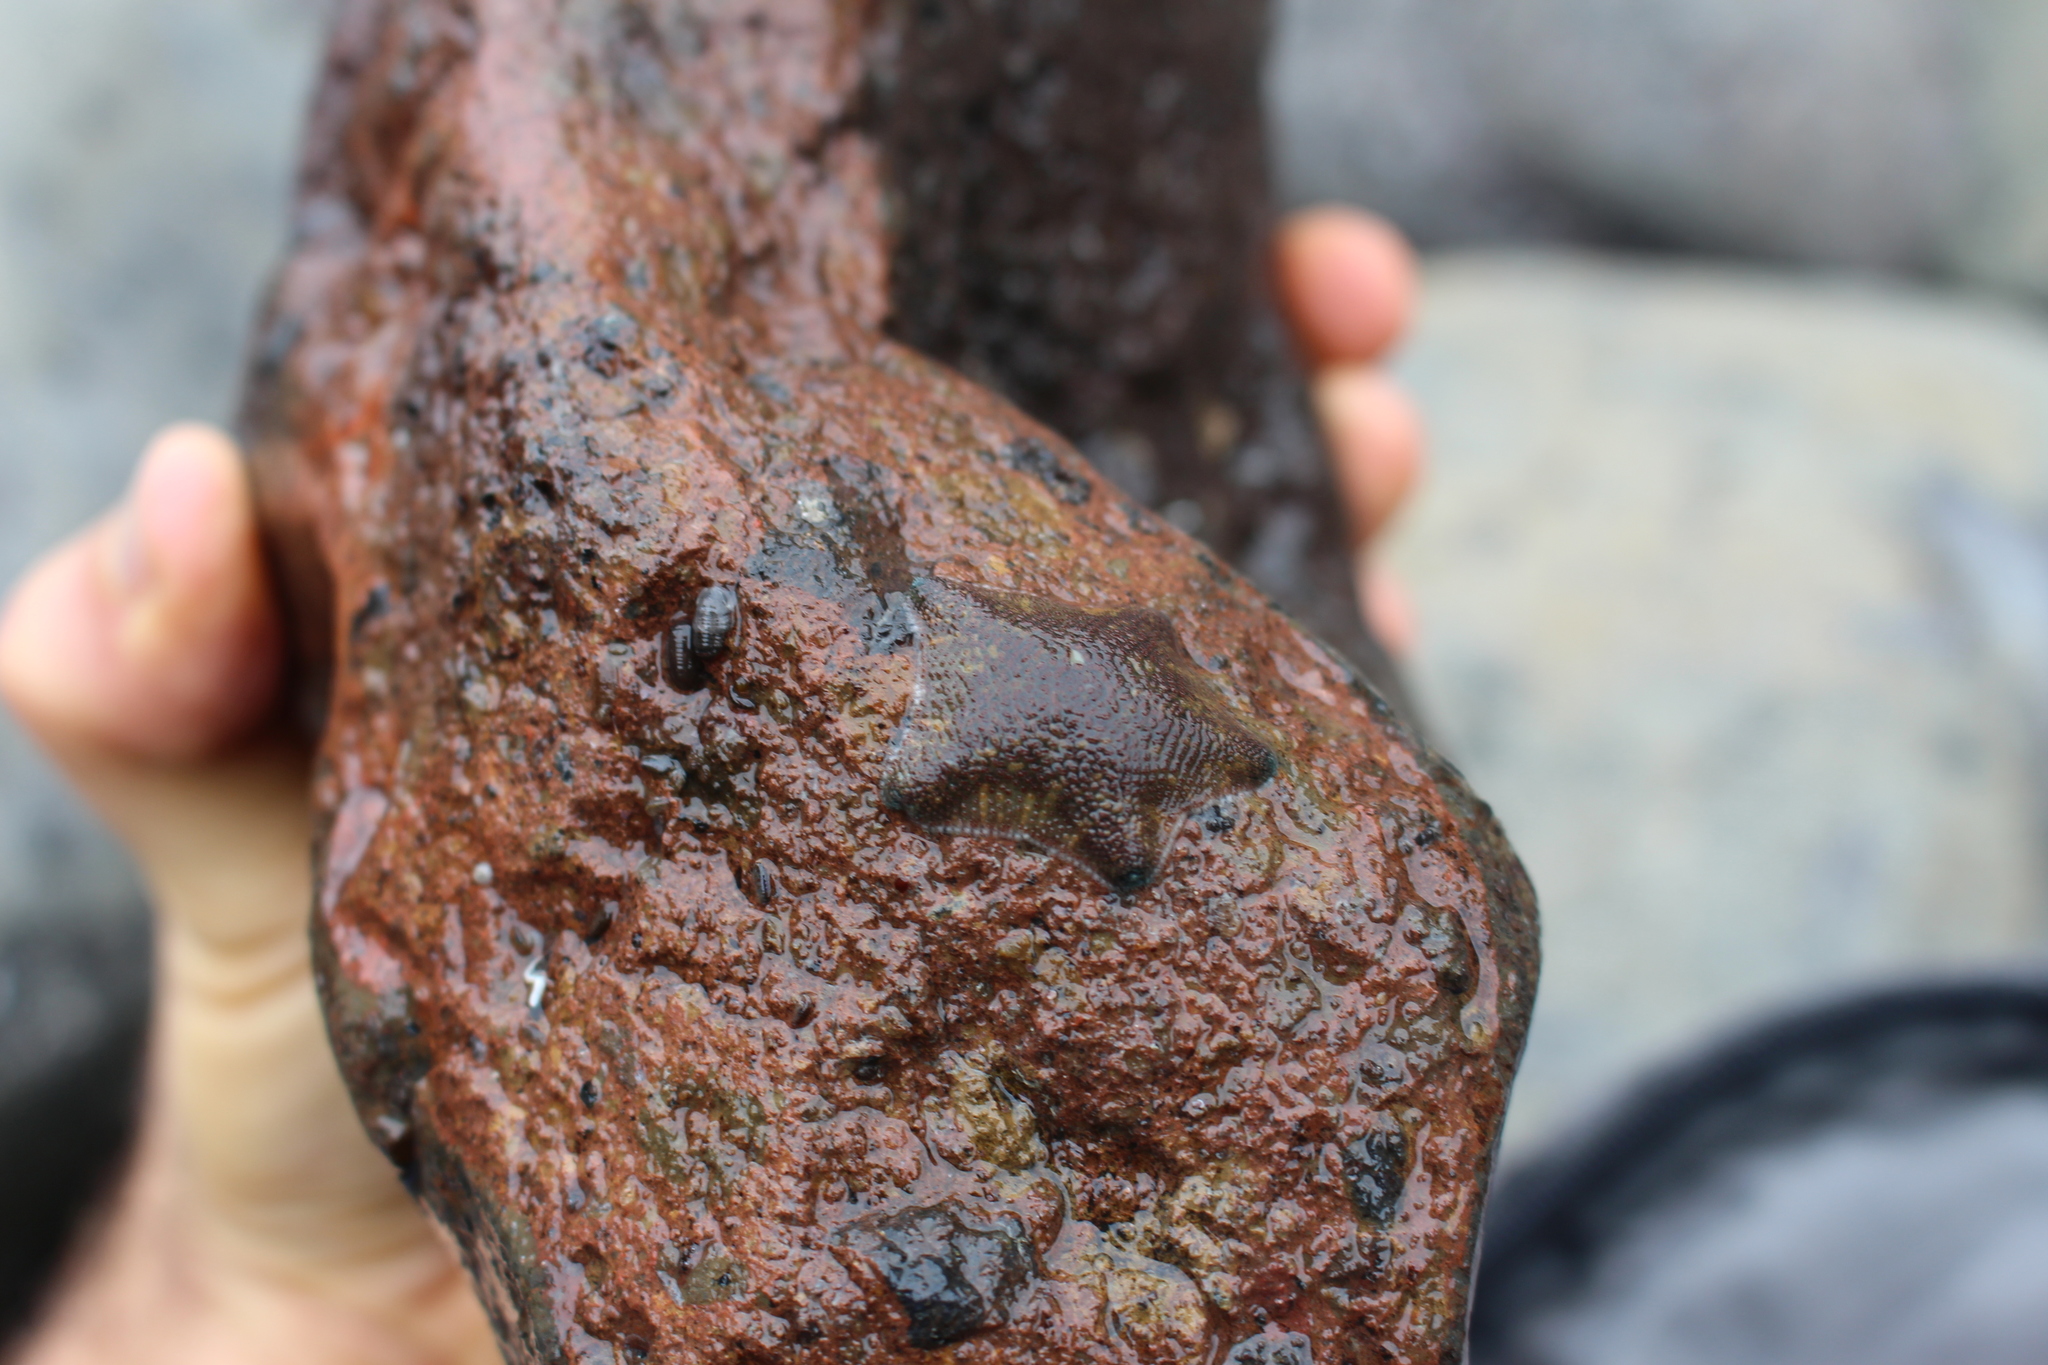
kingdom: Animalia
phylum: Echinodermata
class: Asteroidea
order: Valvatida
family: Asterinidae
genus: Patiriella
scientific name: Patiriella regularis
